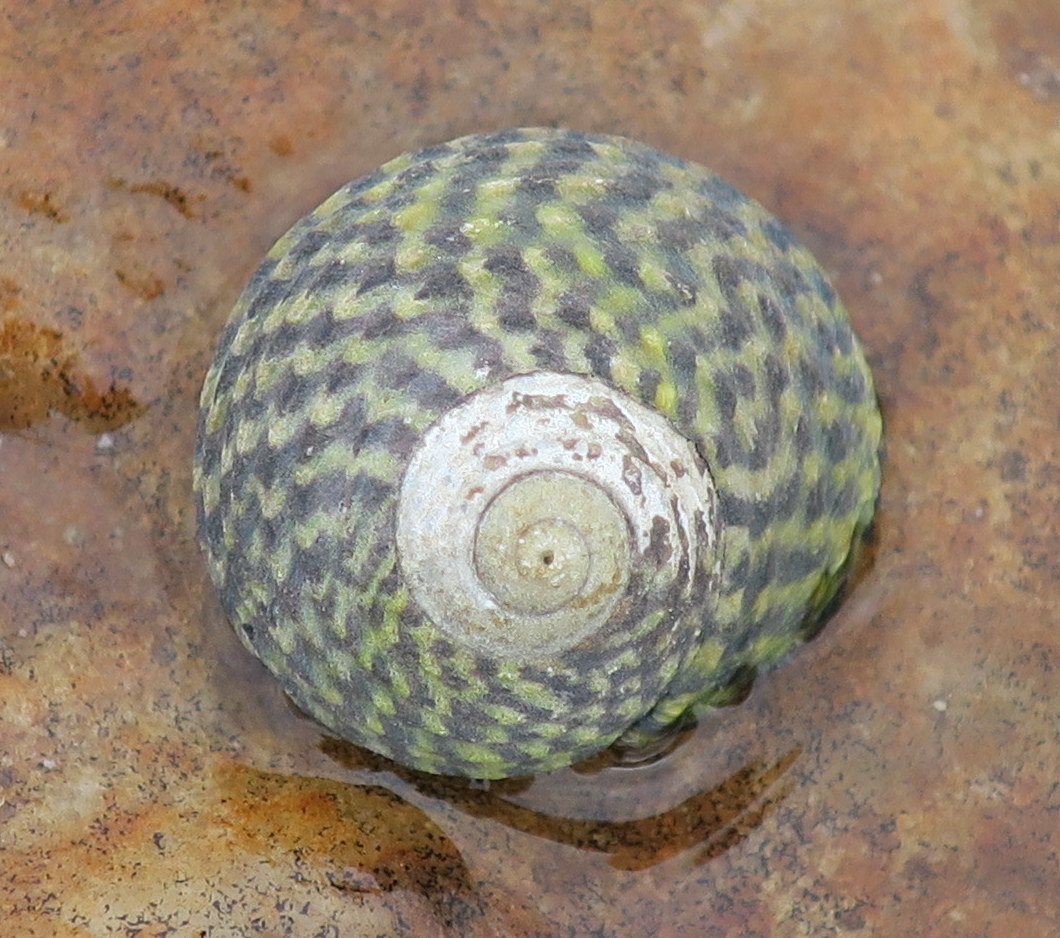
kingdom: Animalia
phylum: Mollusca
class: Gastropoda
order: Trochida
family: Trochidae
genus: Diloma
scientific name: Diloma concameratum
